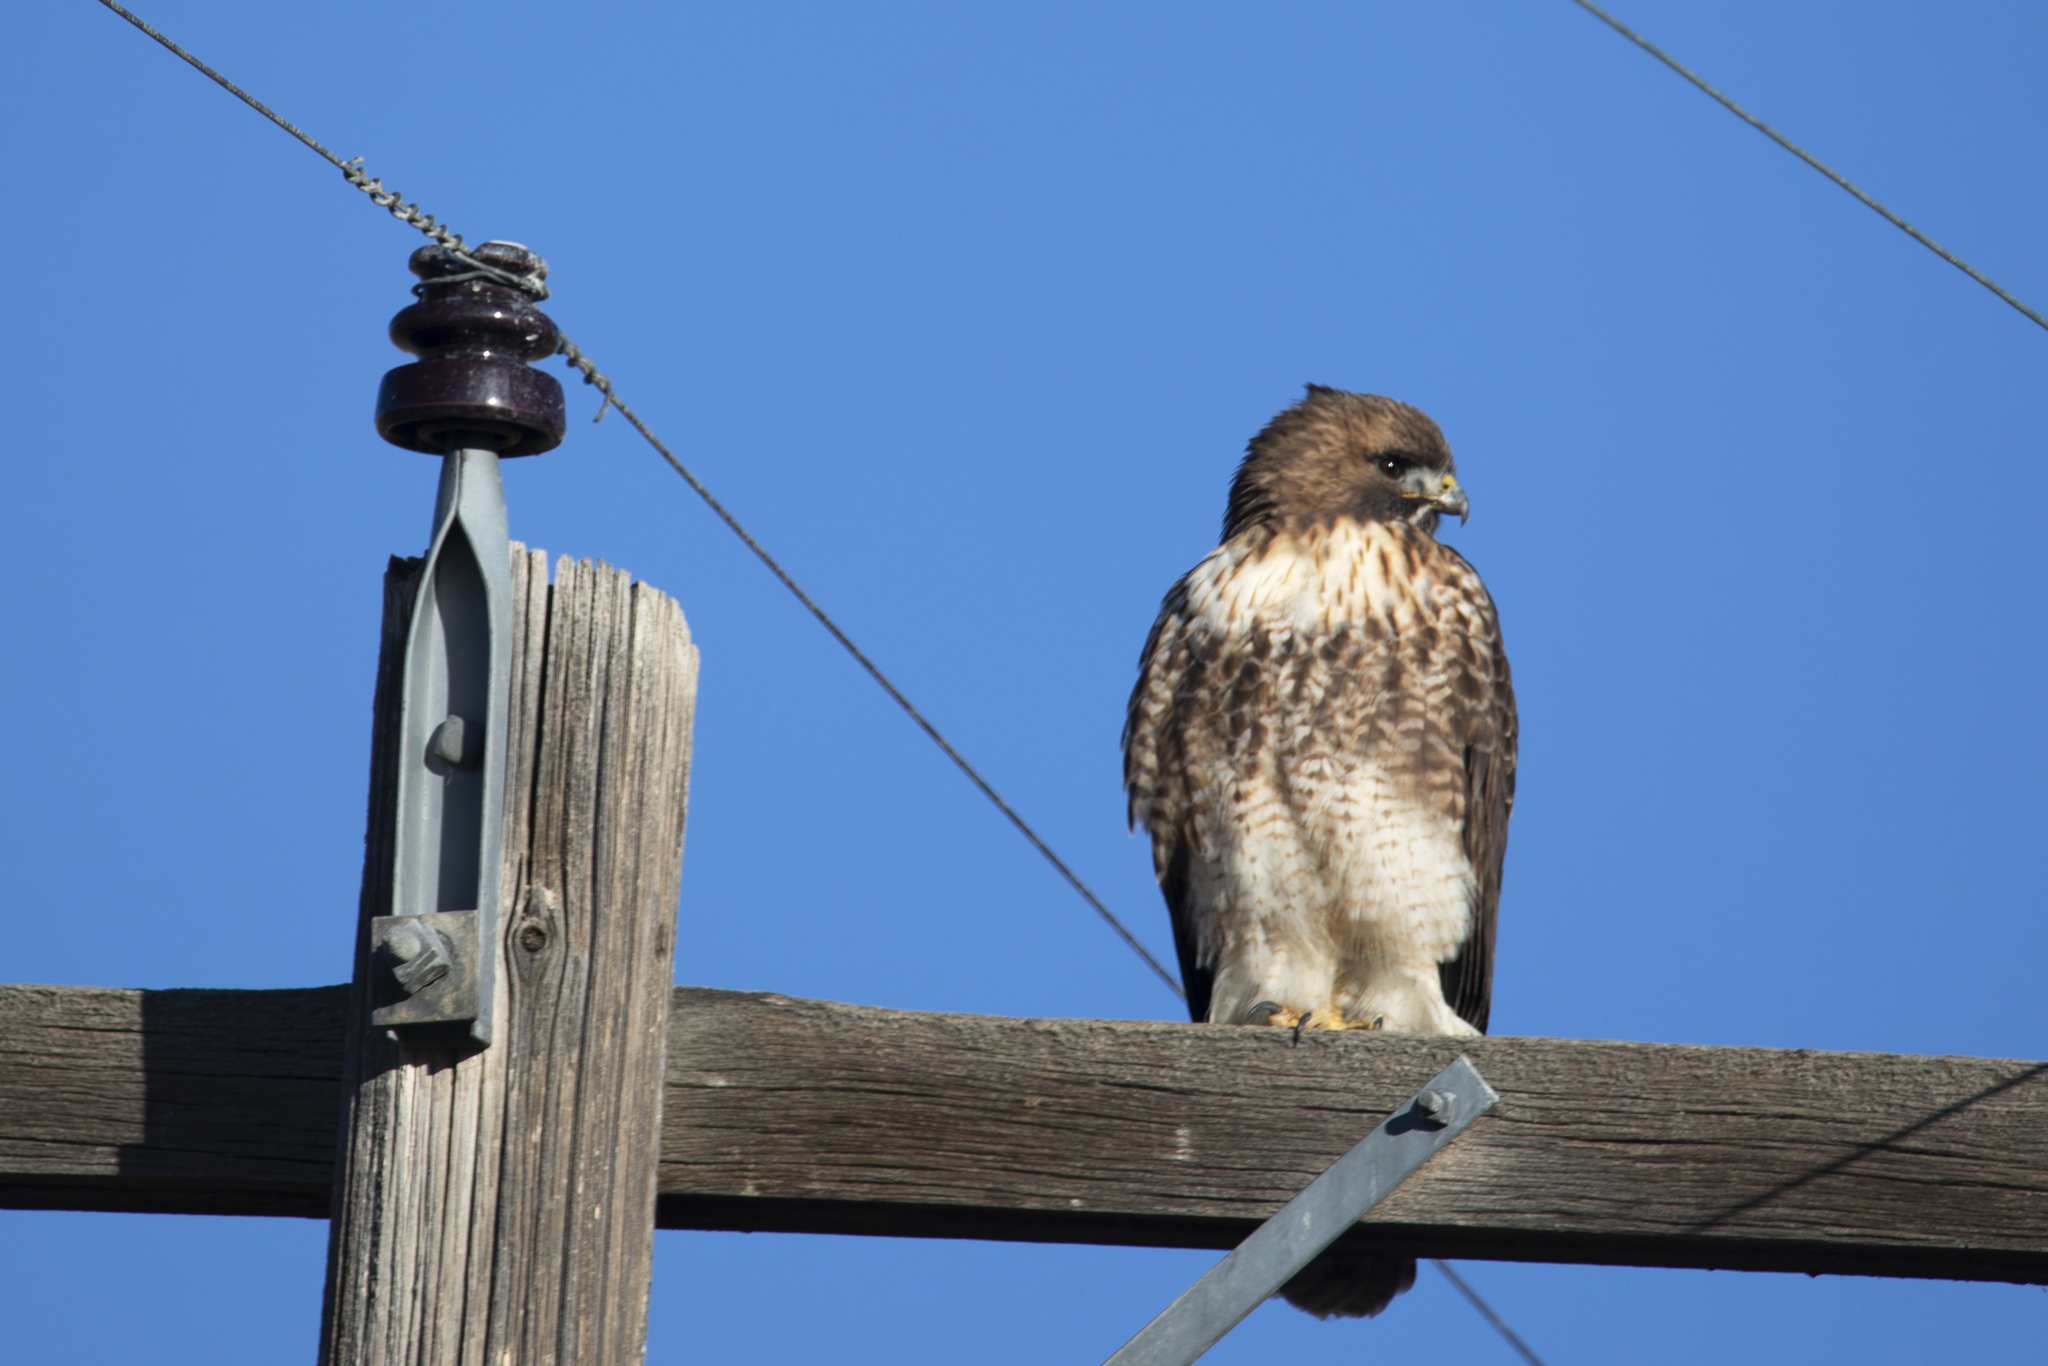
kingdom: Animalia
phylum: Chordata
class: Aves
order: Accipitriformes
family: Accipitridae
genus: Buteo
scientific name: Buteo jamaicensis
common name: Red-tailed hawk
